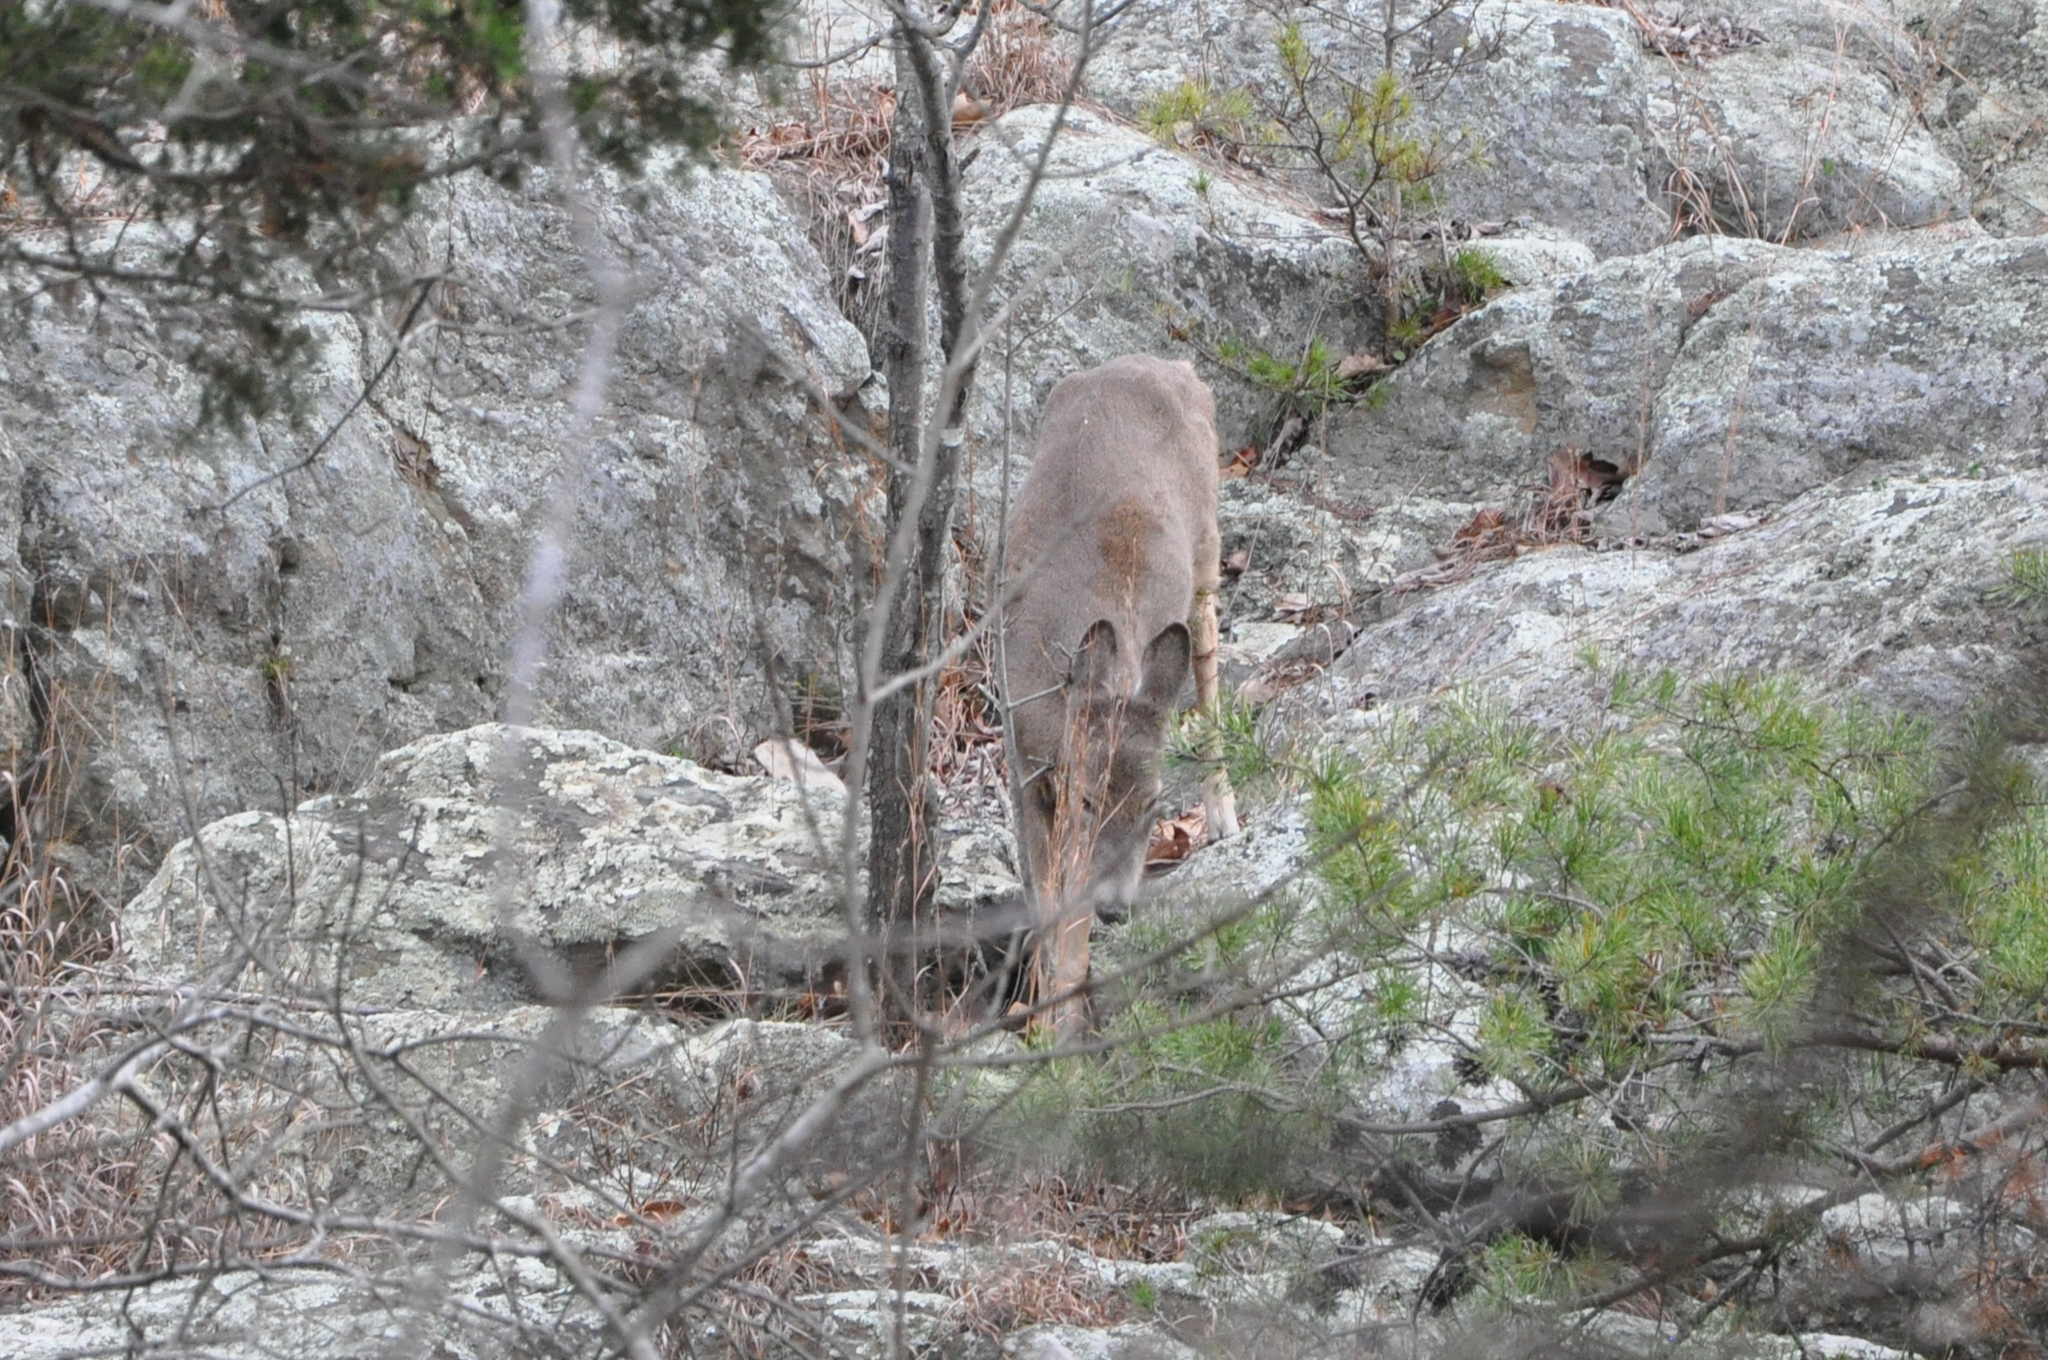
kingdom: Animalia
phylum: Chordata
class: Mammalia
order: Artiodactyla
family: Cervidae
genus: Odocoileus
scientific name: Odocoileus virginianus
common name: White-tailed deer
